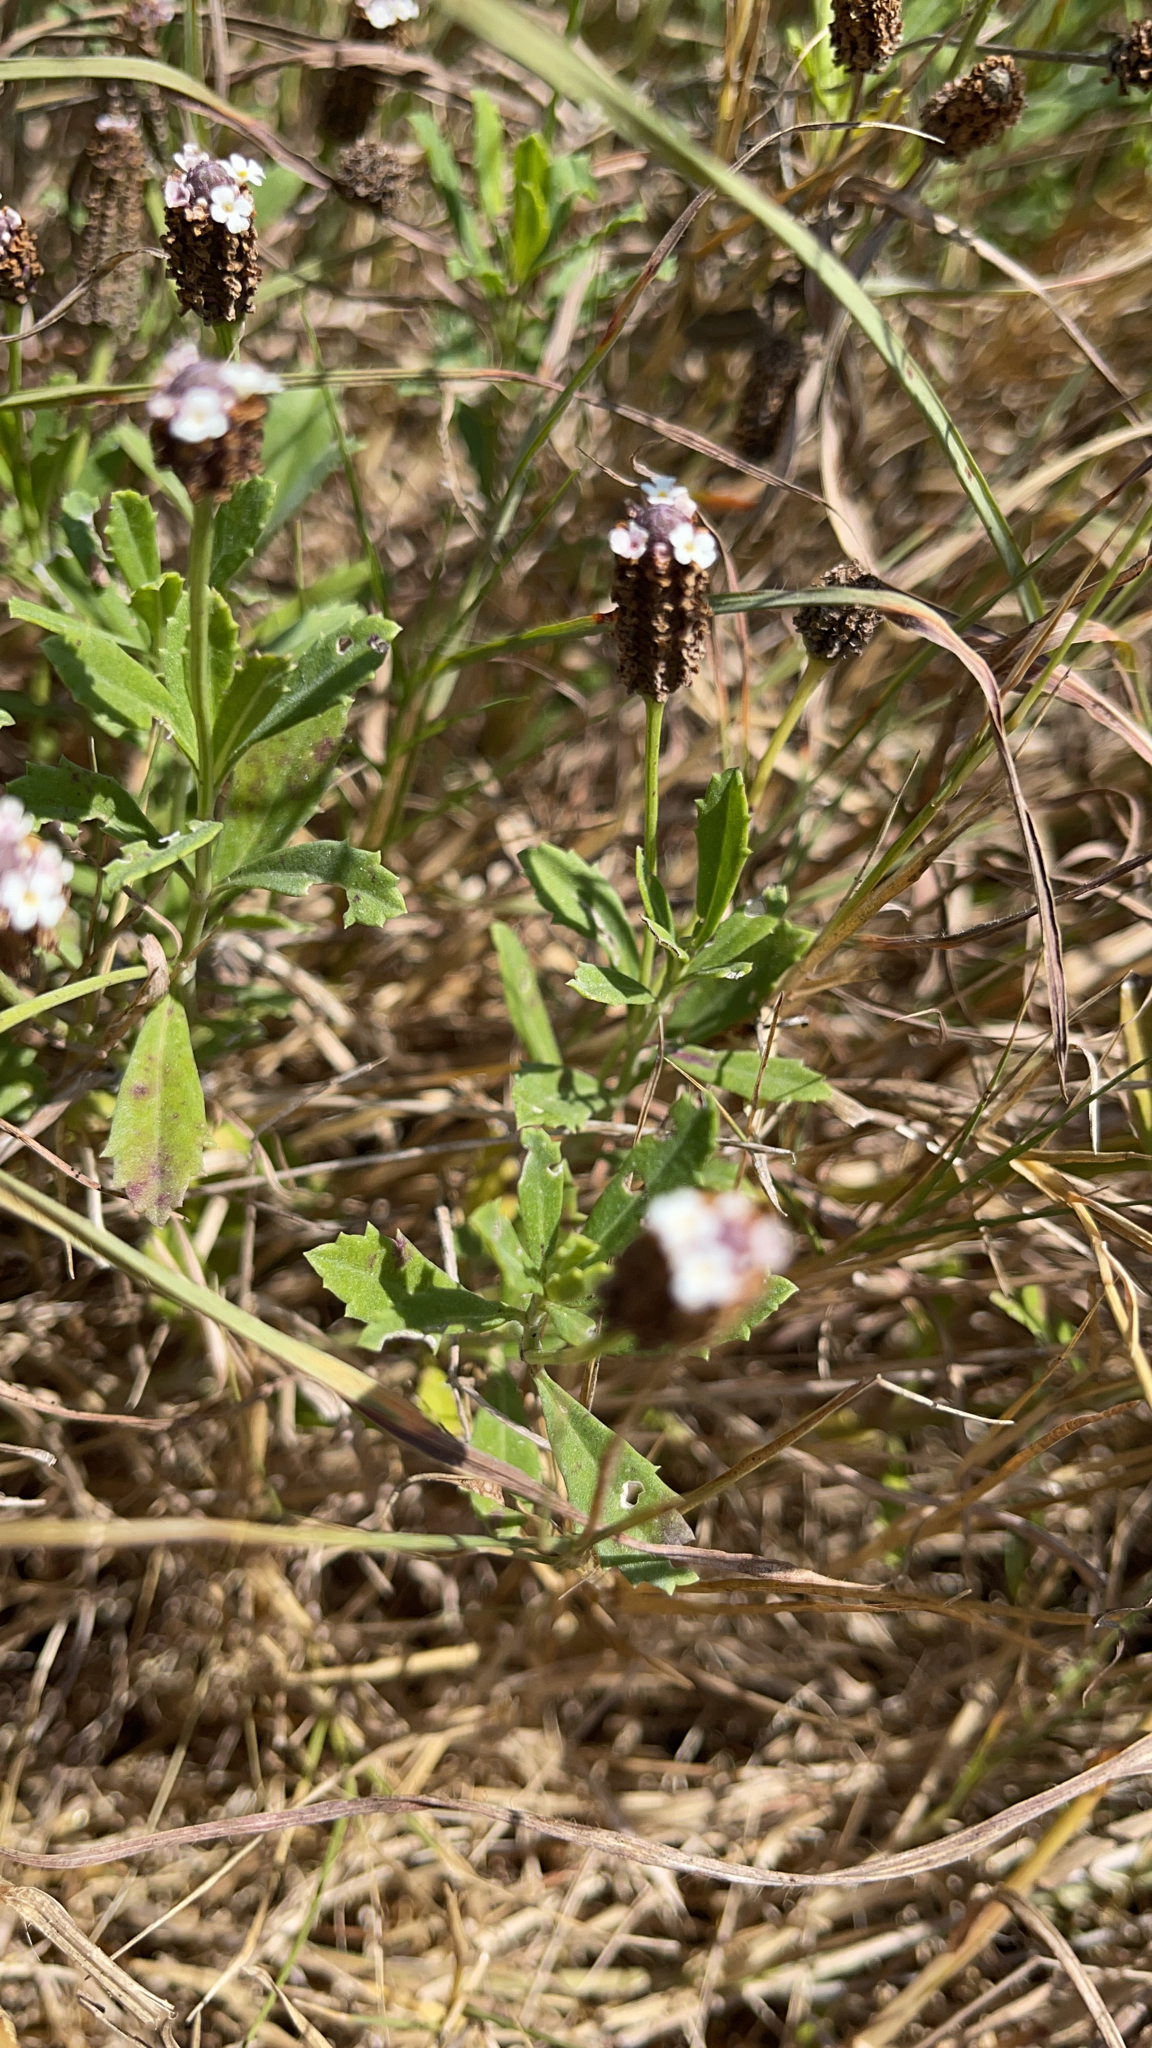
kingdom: Plantae
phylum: Tracheophyta
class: Magnoliopsida
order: Lamiales
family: Verbenaceae
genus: Phyla
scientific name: Phyla nodiflora
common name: Frogfruit
